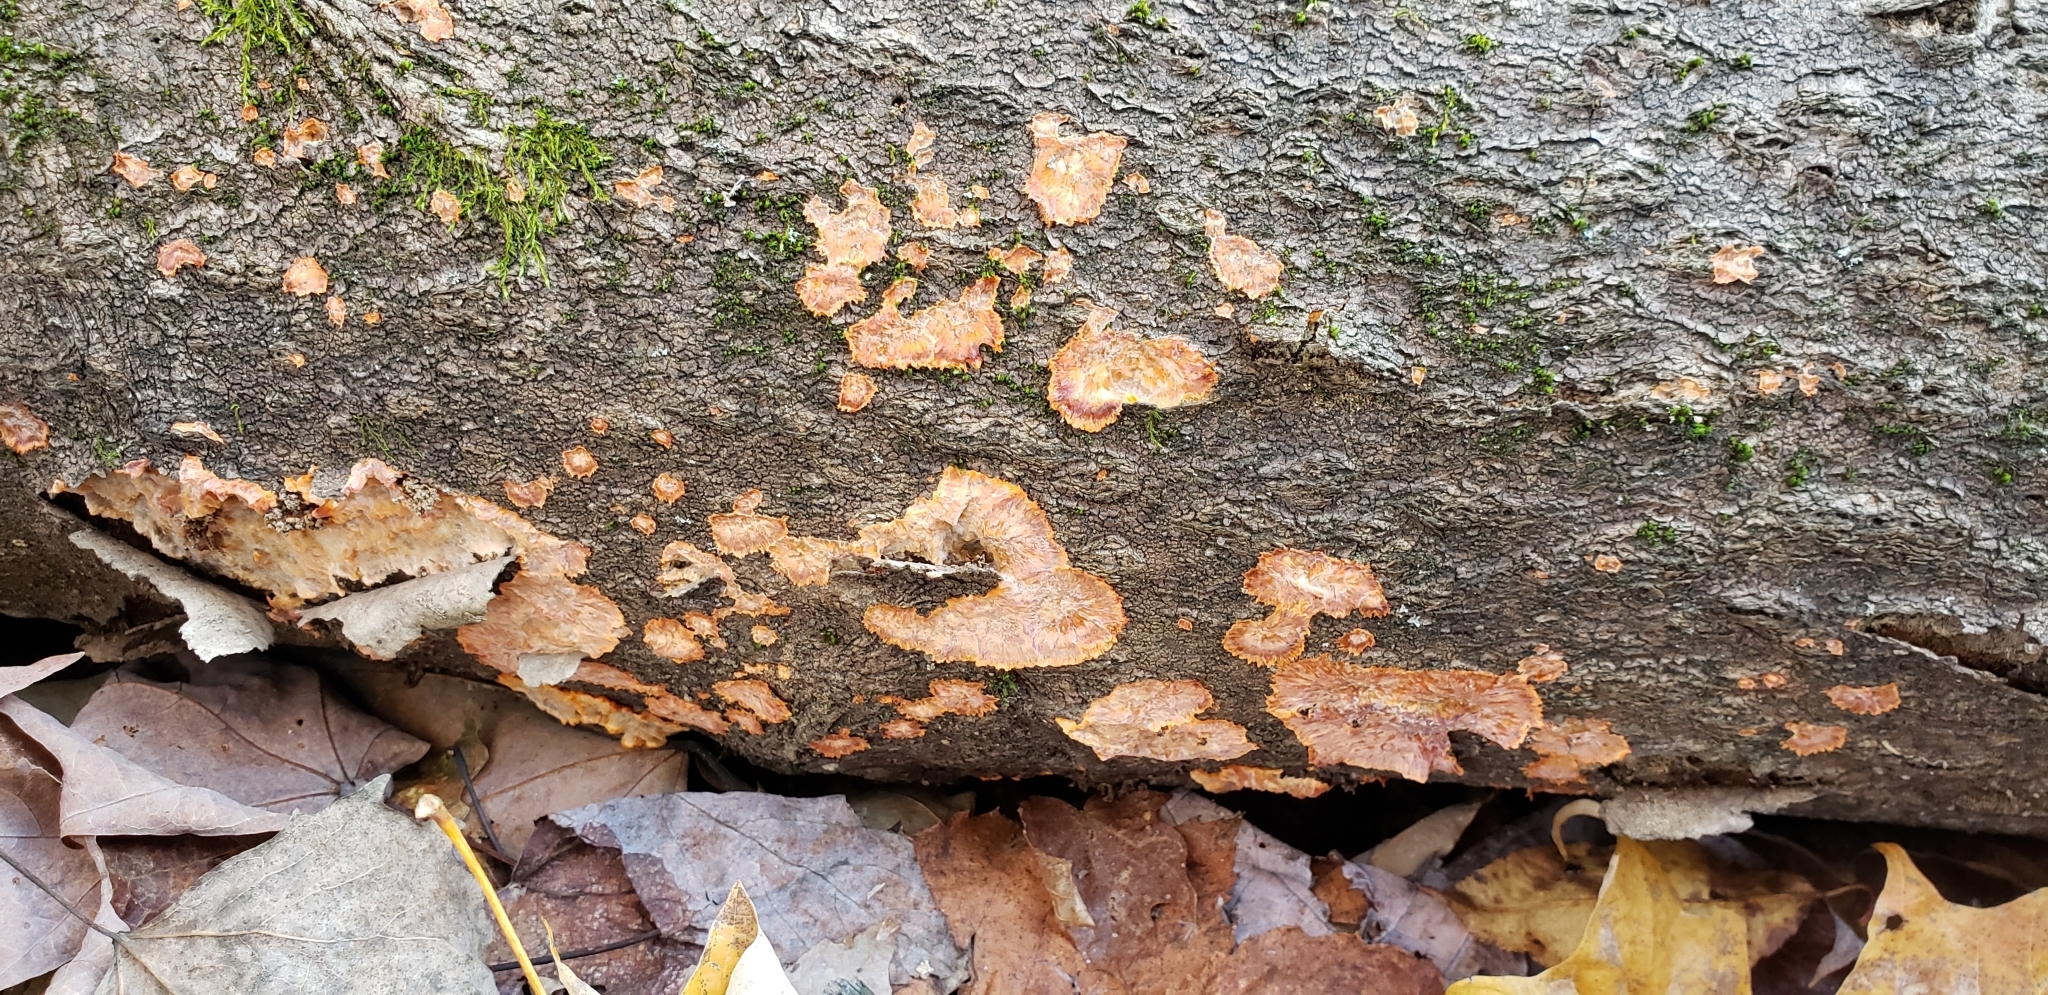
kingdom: Fungi
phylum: Basidiomycota
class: Agaricomycetes
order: Polyporales
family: Meruliaceae
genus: Phlebia
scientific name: Phlebia radiata
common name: Wrinkled crust
